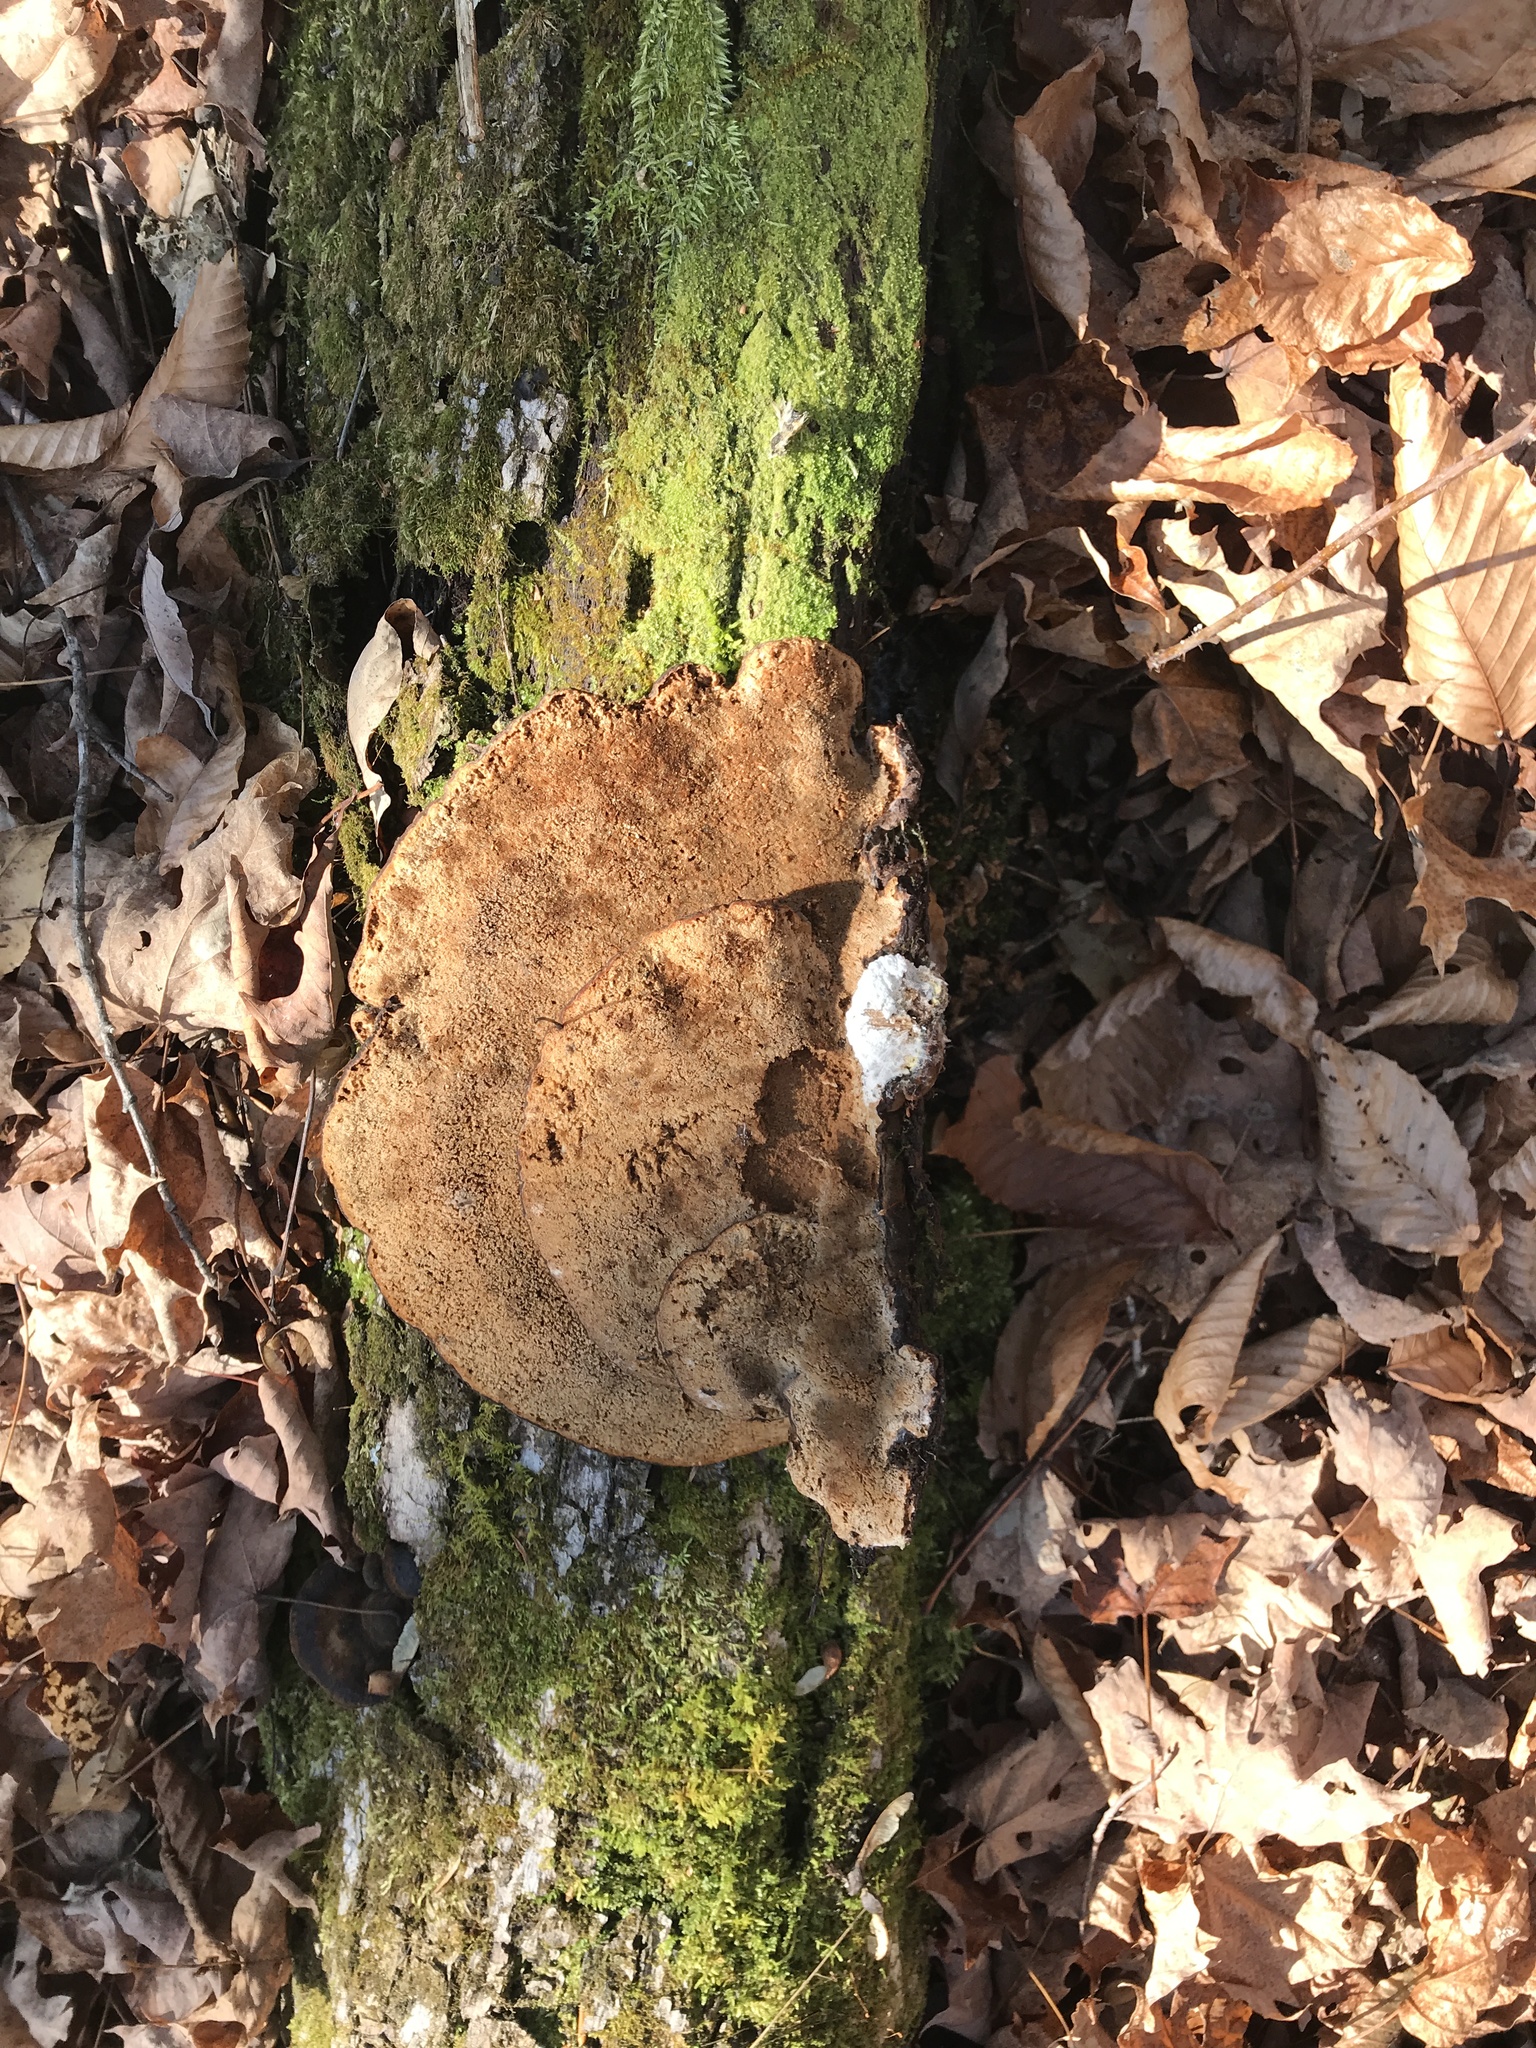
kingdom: Fungi
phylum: Basidiomycota
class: Agaricomycetes
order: Polyporales
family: Ischnodermataceae
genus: Ischnoderma
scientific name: Ischnoderma resinosum
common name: Resinous polypore
